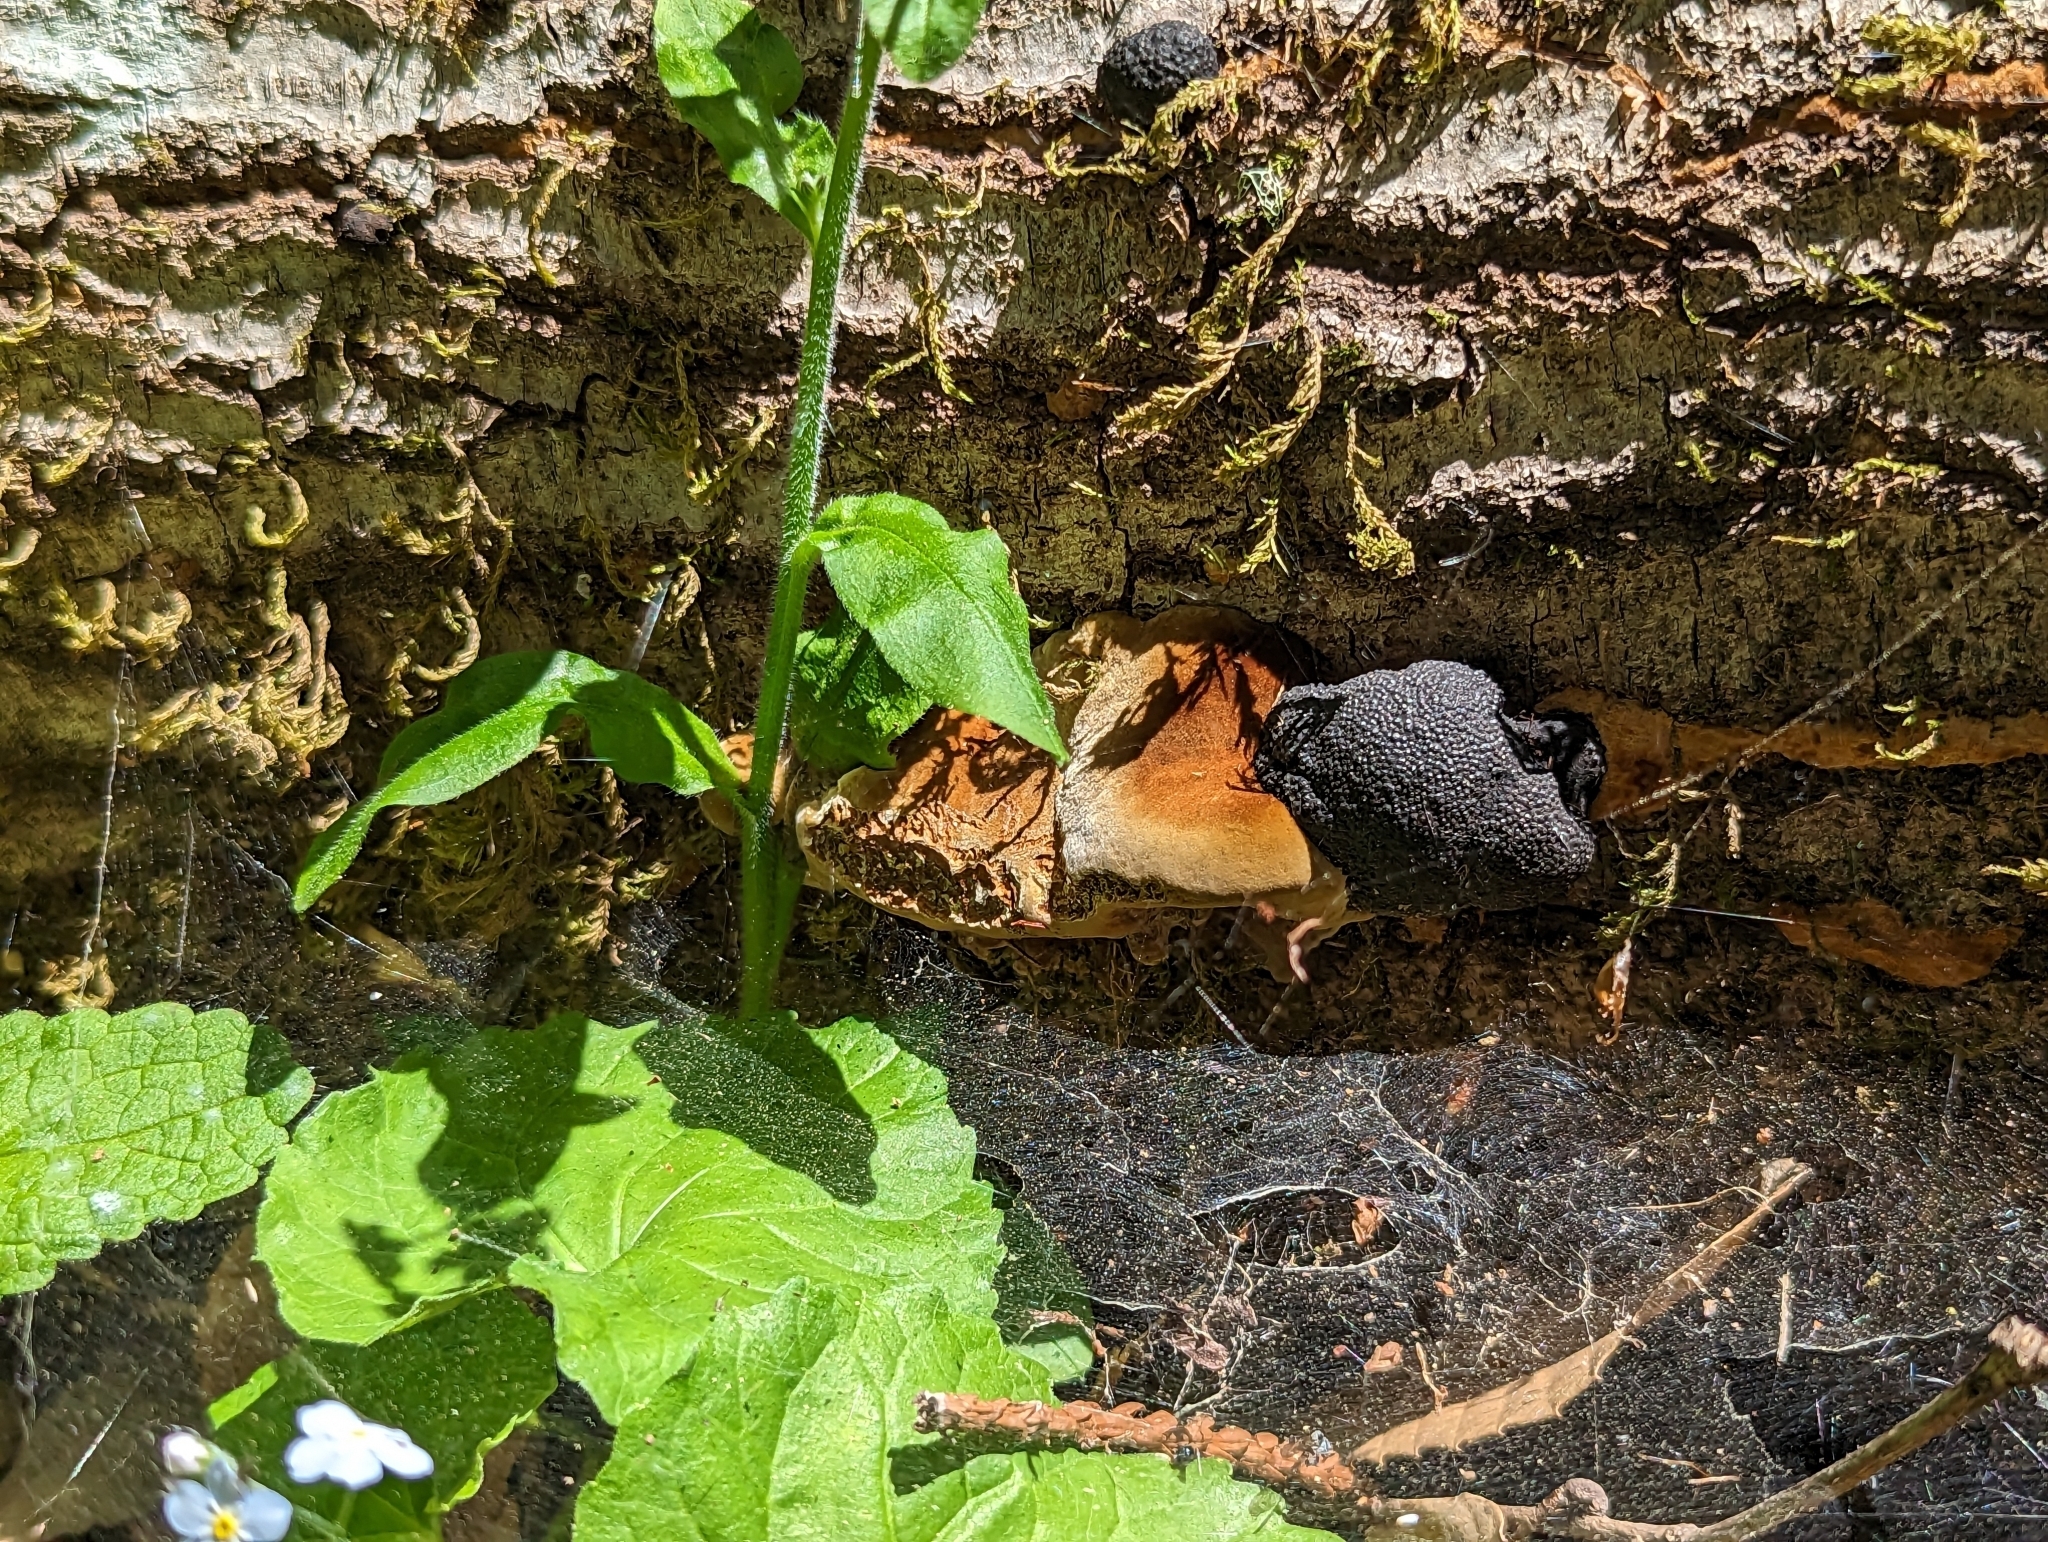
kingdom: Fungi
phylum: Basidiomycota
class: Agaricomycetes
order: Hymenochaetales
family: Hymenochaetaceae
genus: Phellinus
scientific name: Phellinus gilvus
